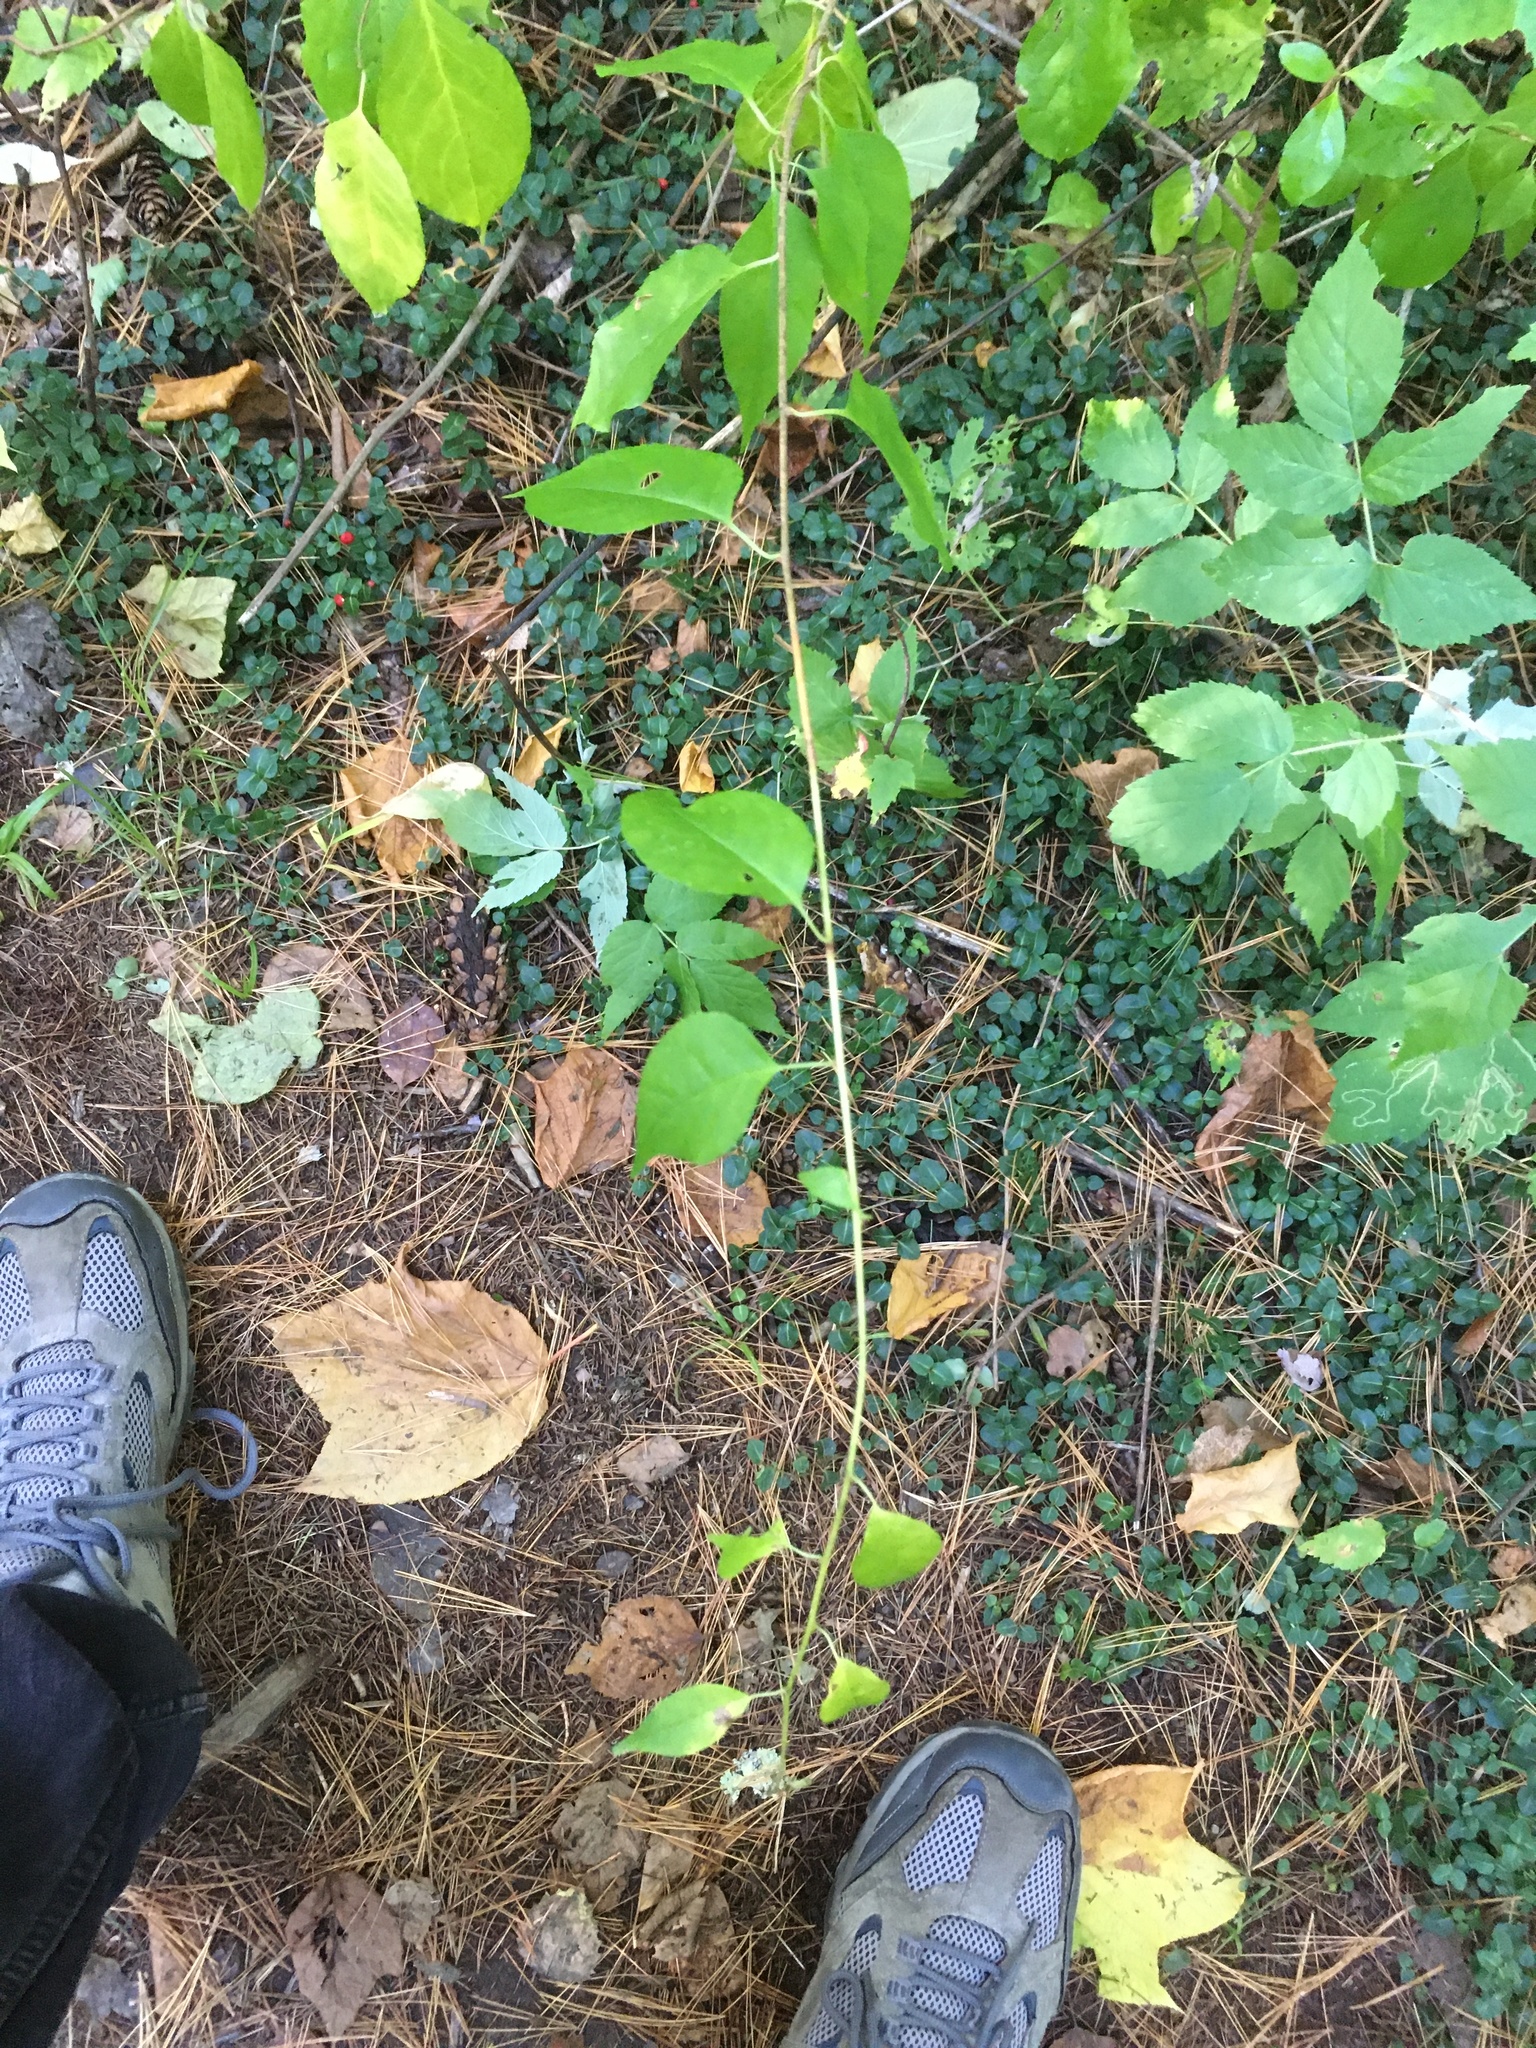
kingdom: Plantae
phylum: Tracheophyta
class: Magnoliopsida
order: Celastrales
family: Celastraceae
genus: Celastrus
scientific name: Celastrus orbiculatus
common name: Oriental bittersweet
